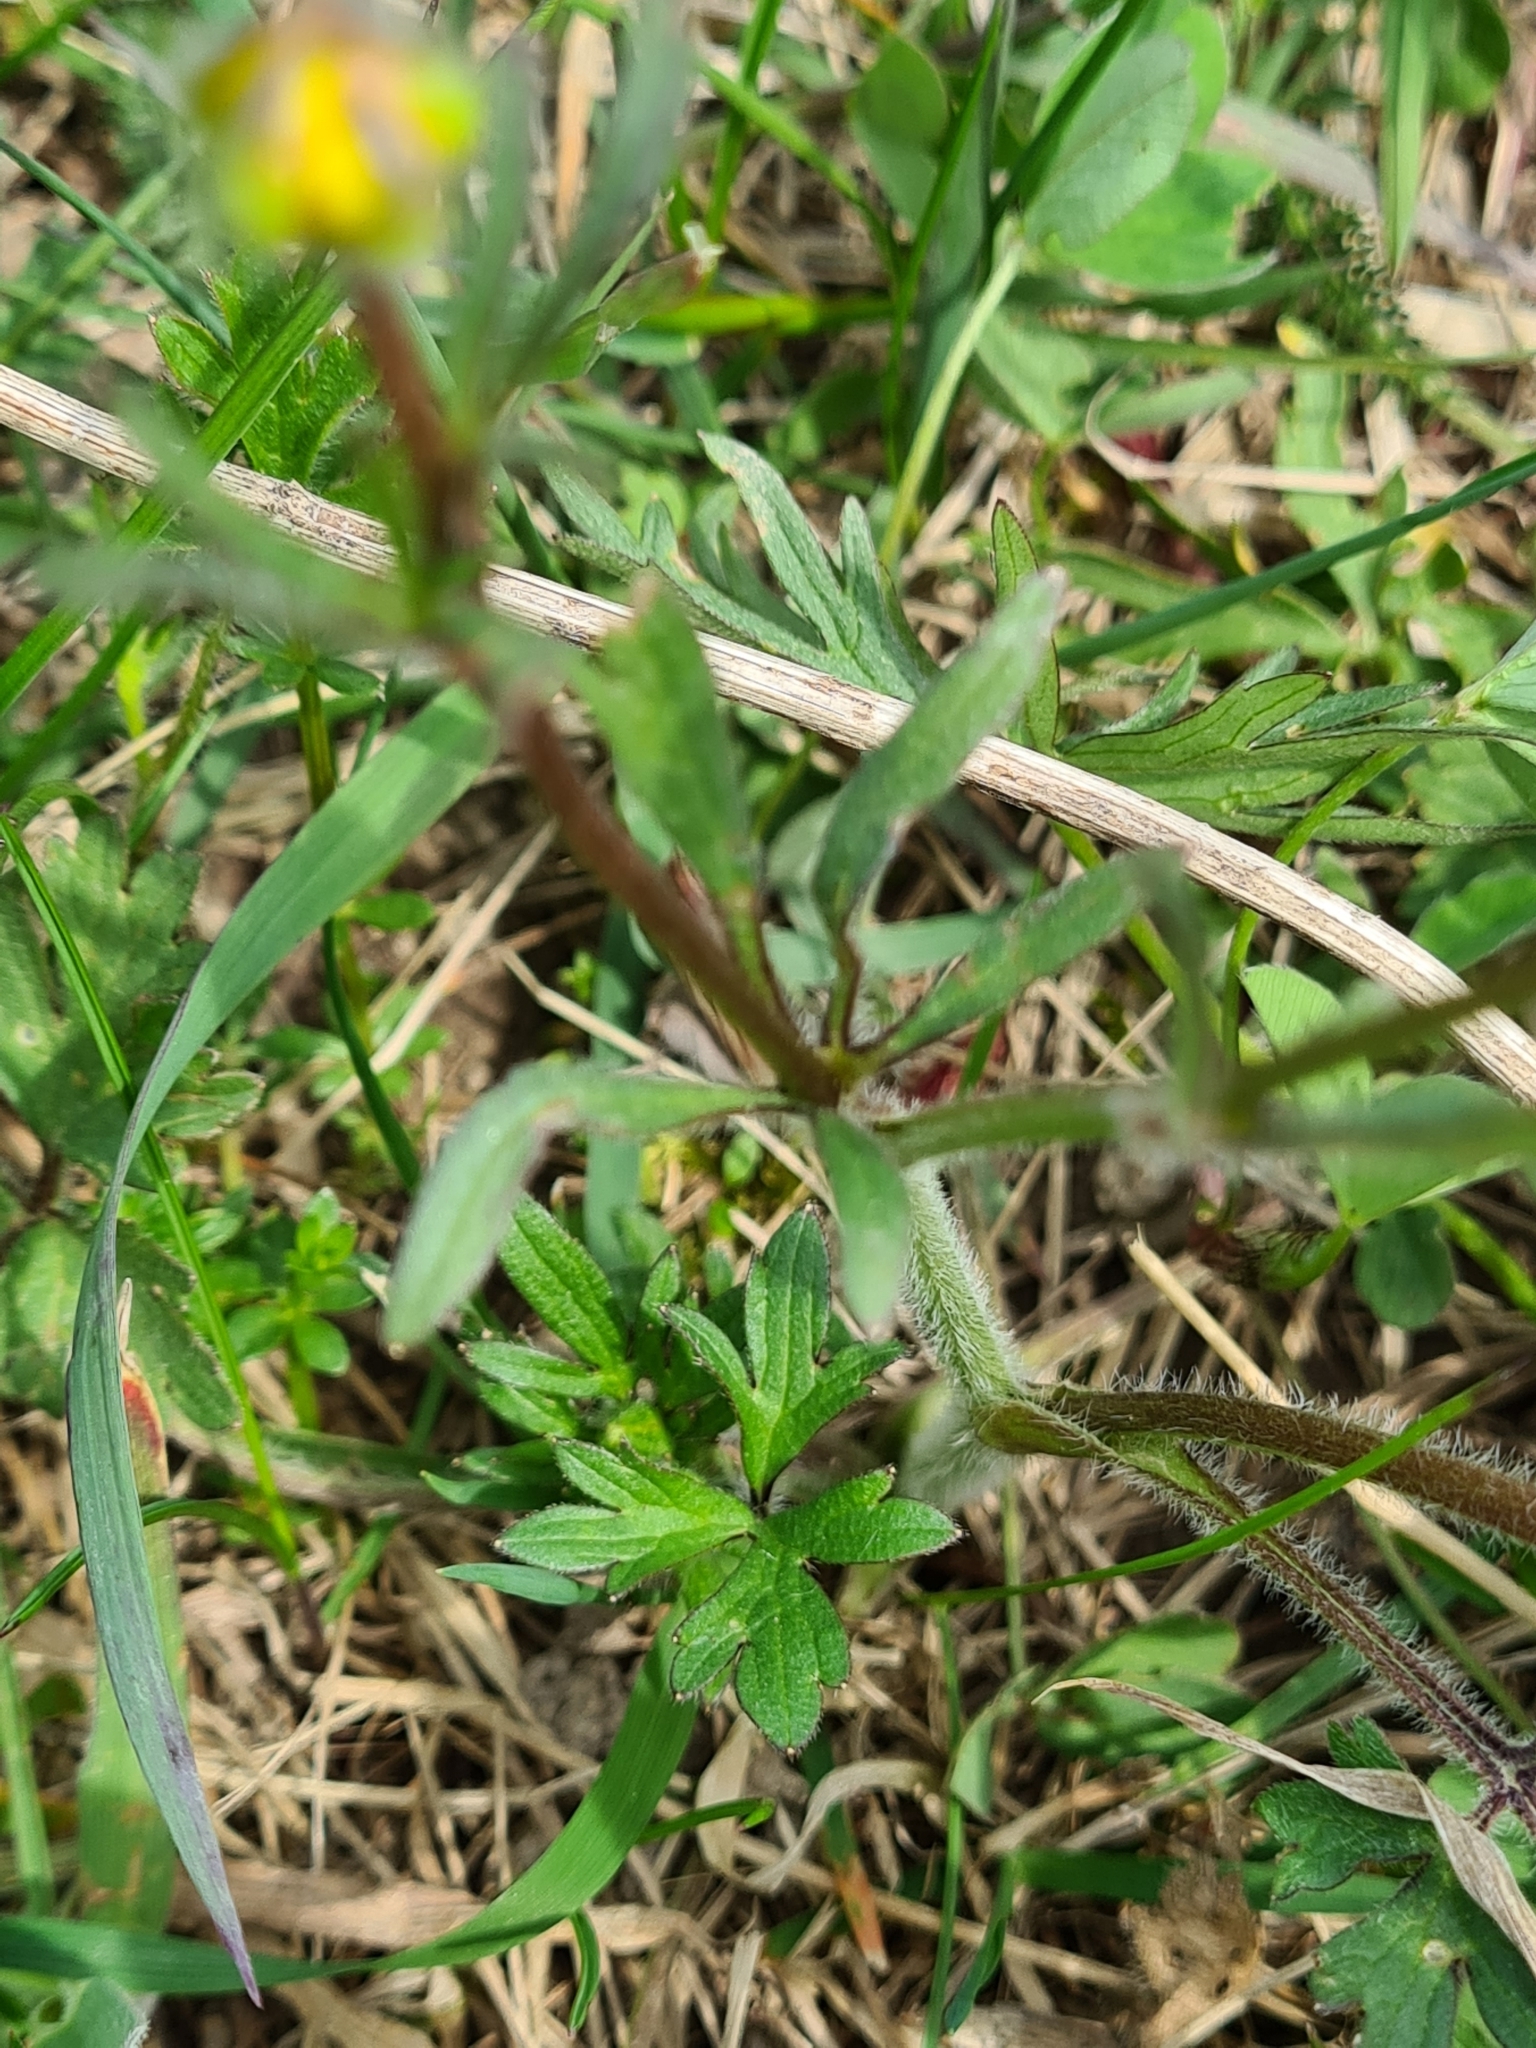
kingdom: Plantae
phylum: Tracheophyta
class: Magnoliopsida
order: Ranunculales
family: Ranunculaceae
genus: Ranunculus
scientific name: Ranunculus bulbosus
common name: Bulbous buttercup
